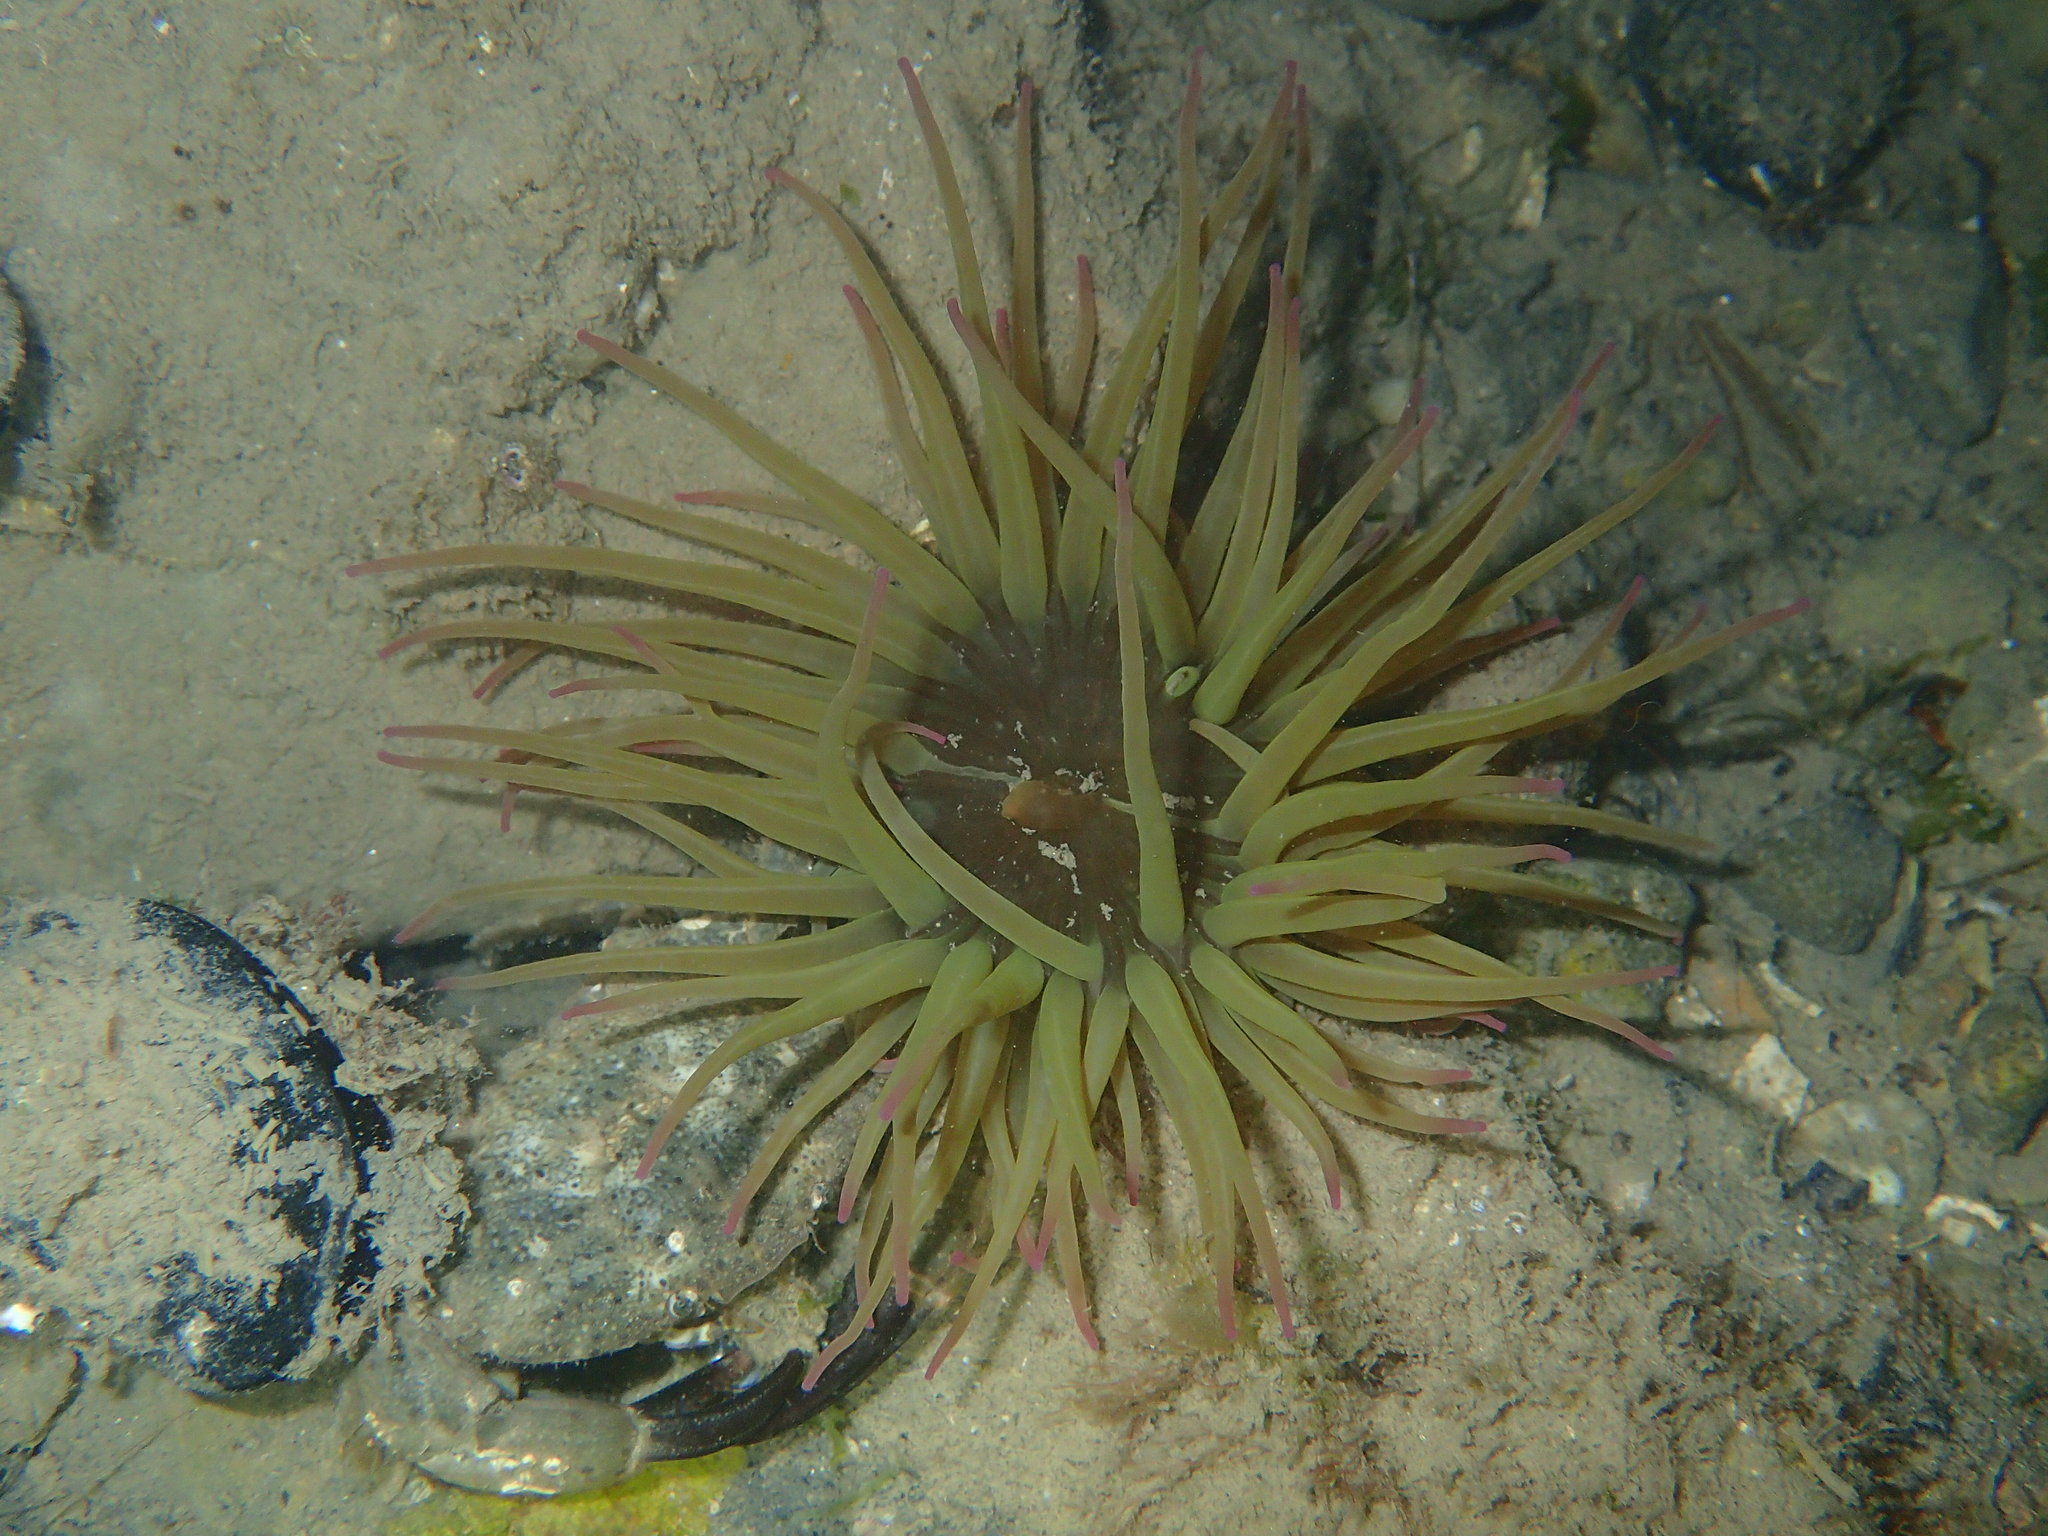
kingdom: Animalia
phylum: Cnidaria
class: Anthozoa
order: Actiniaria
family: Actiniidae
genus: Anemonia
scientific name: Anemonia viridis
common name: Snakelocks anemone
